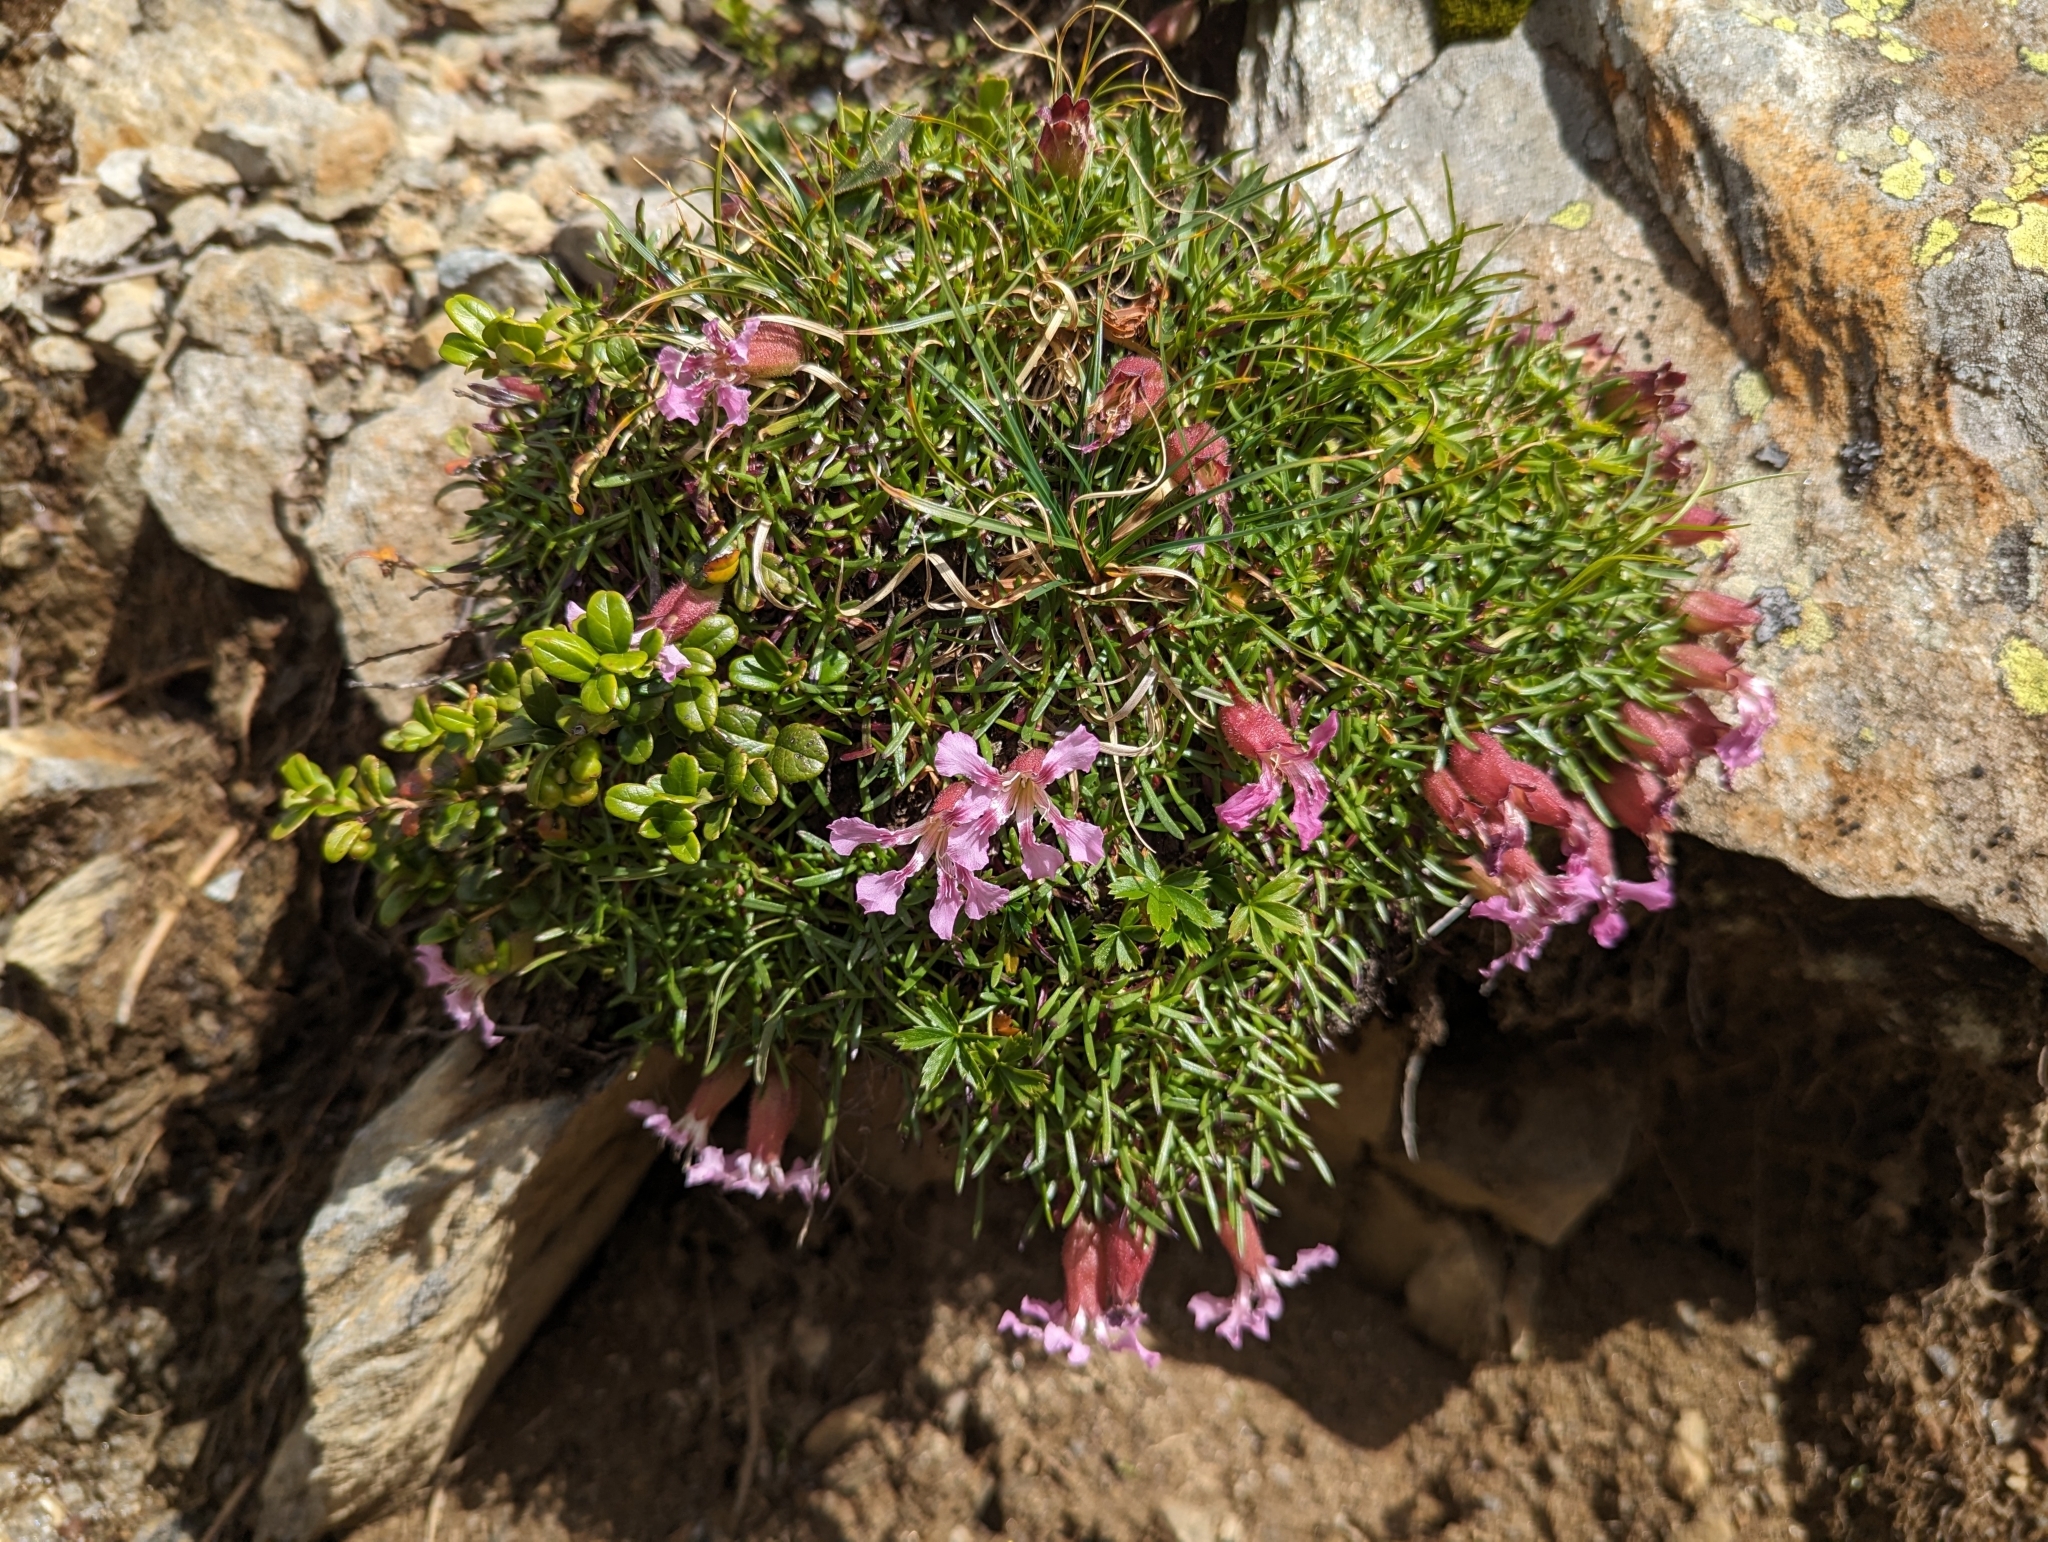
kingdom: Plantae
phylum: Tracheophyta
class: Magnoliopsida
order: Caryophyllales
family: Caryophyllaceae
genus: Saponaria
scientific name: Saponaria pumila
